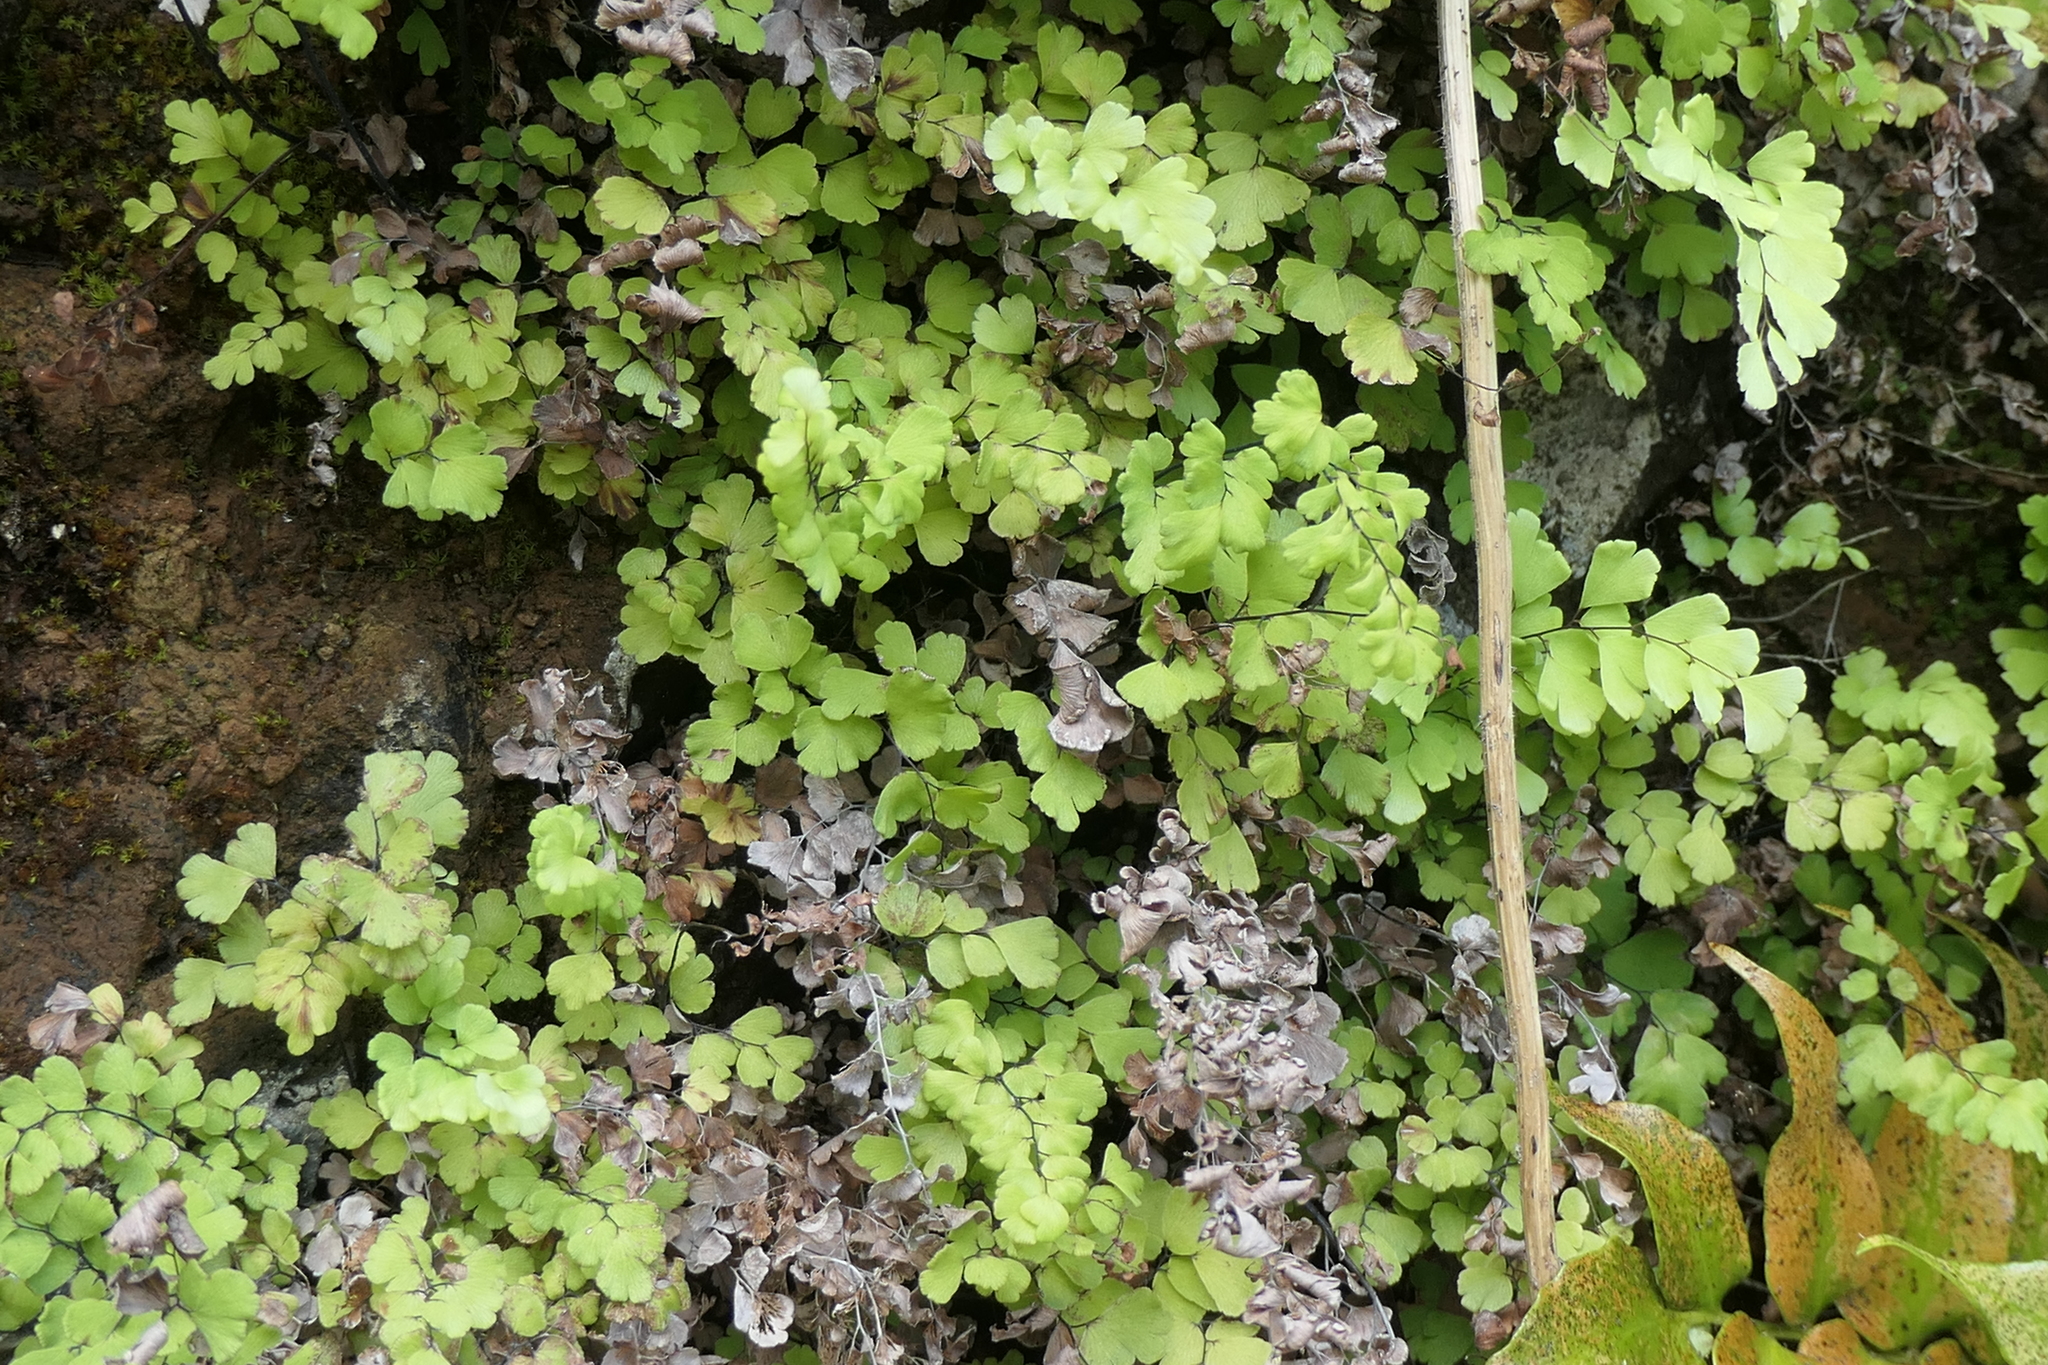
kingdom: Plantae
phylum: Tracheophyta
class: Polypodiopsida
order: Polypodiales
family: Pteridaceae
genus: Adiantum
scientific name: Adiantum capillus-veneris
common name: Maidenhair fern
